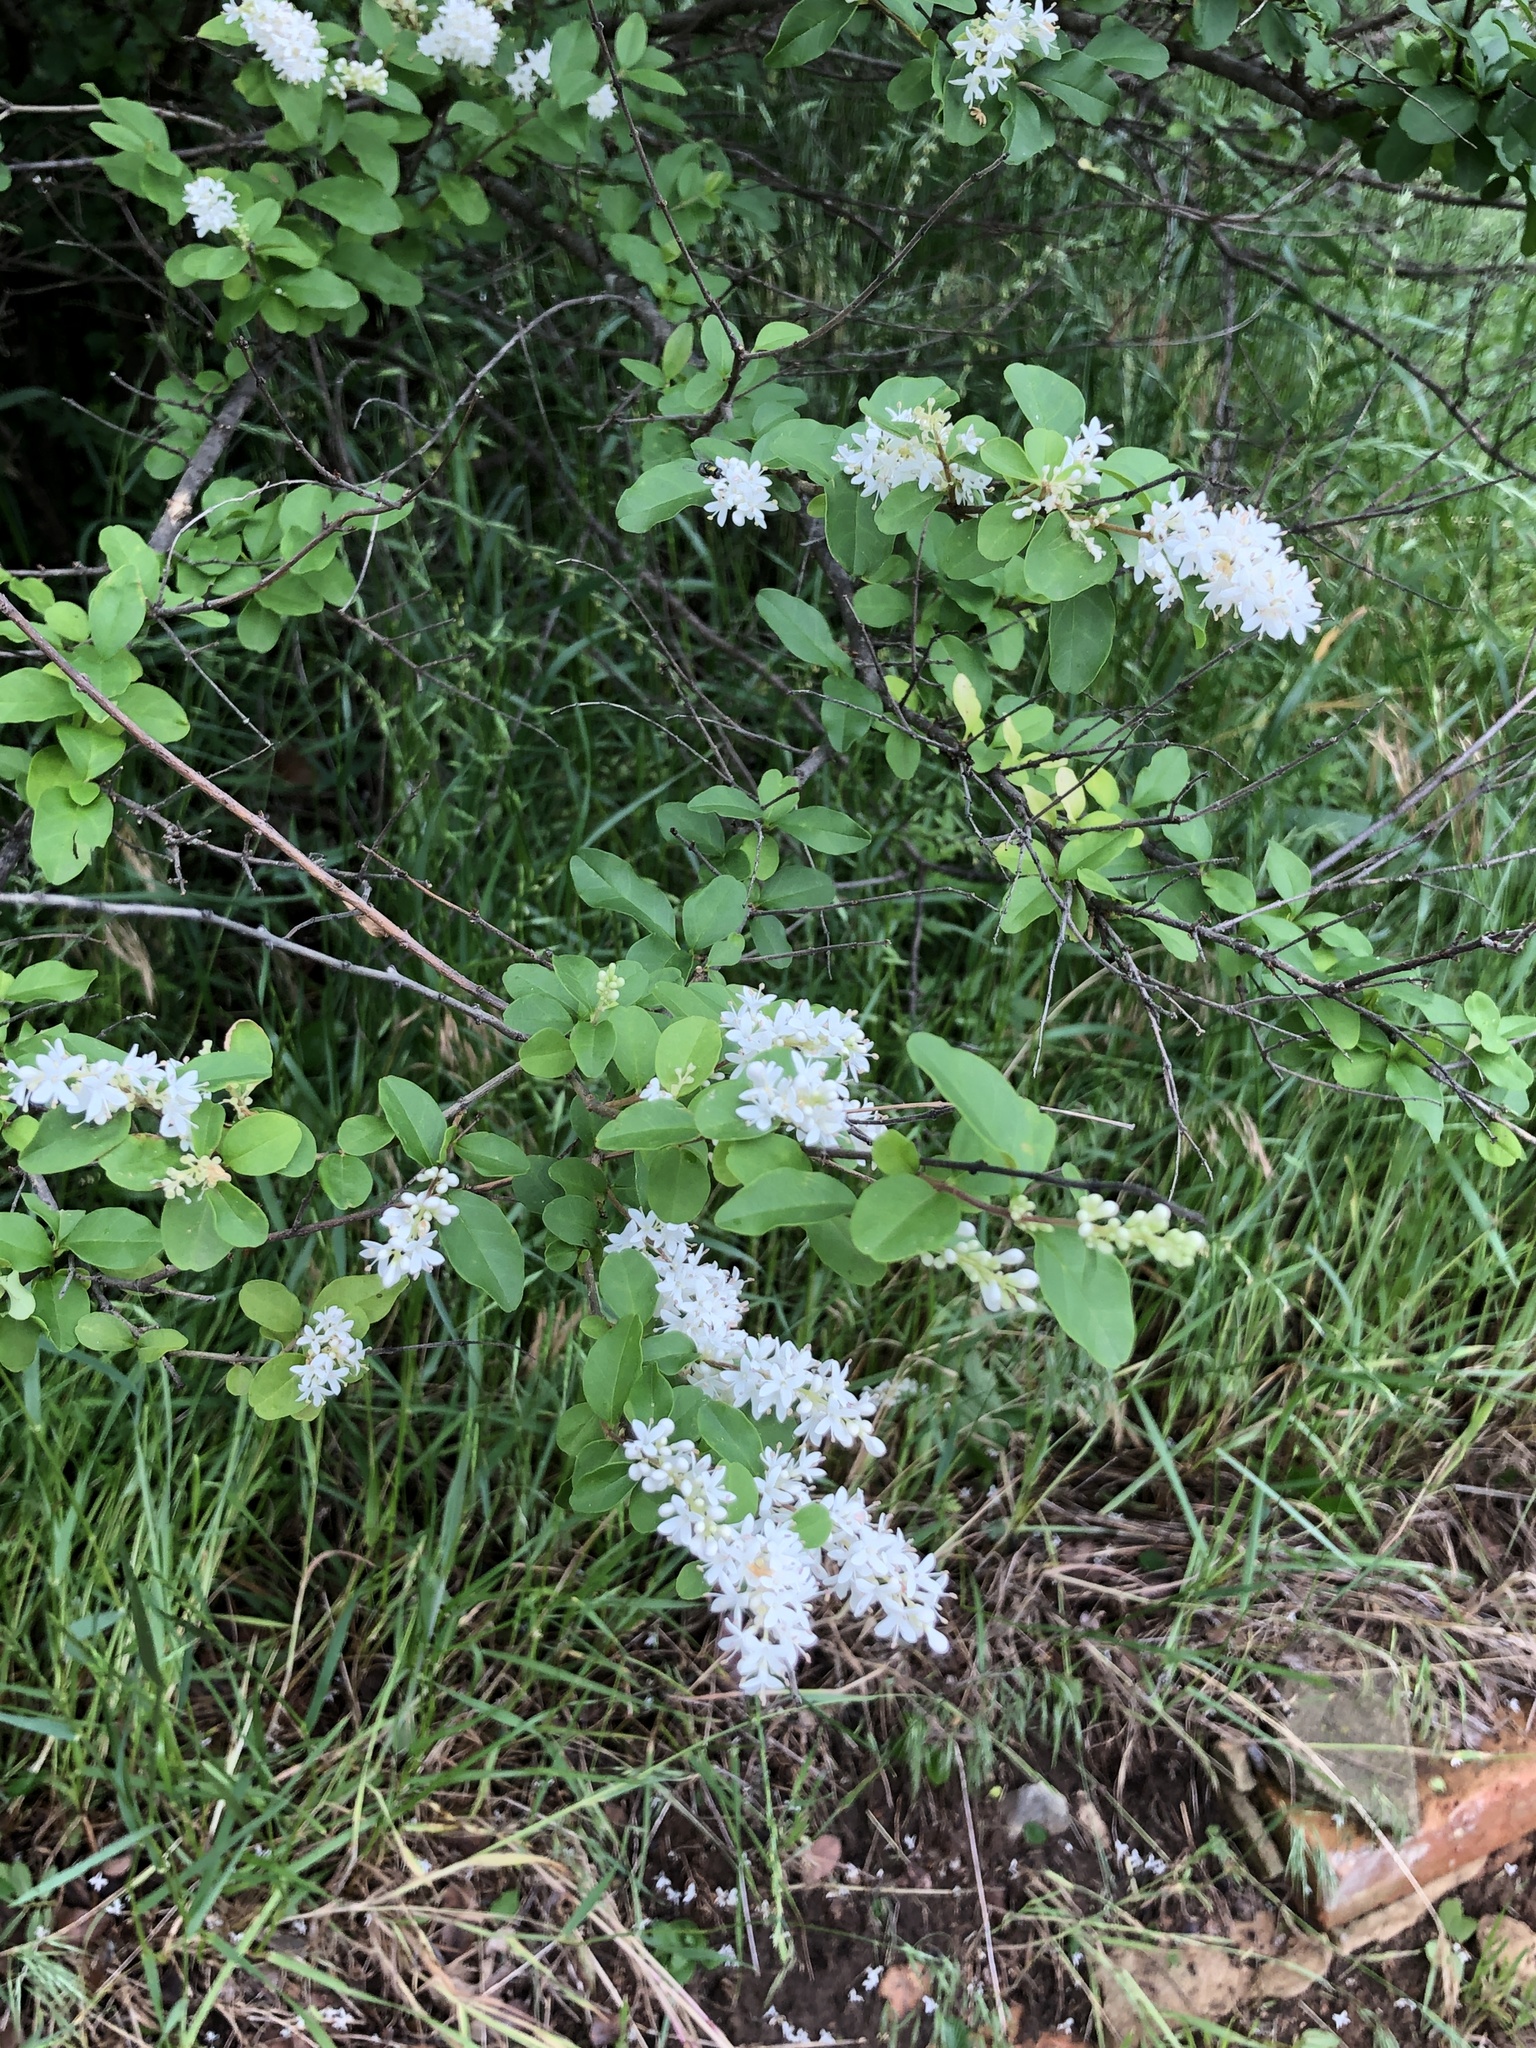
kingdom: Plantae
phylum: Tracheophyta
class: Magnoliopsida
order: Lamiales
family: Oleaceae
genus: Ligustrum
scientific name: Ligustrum sinense
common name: Chinese privet
